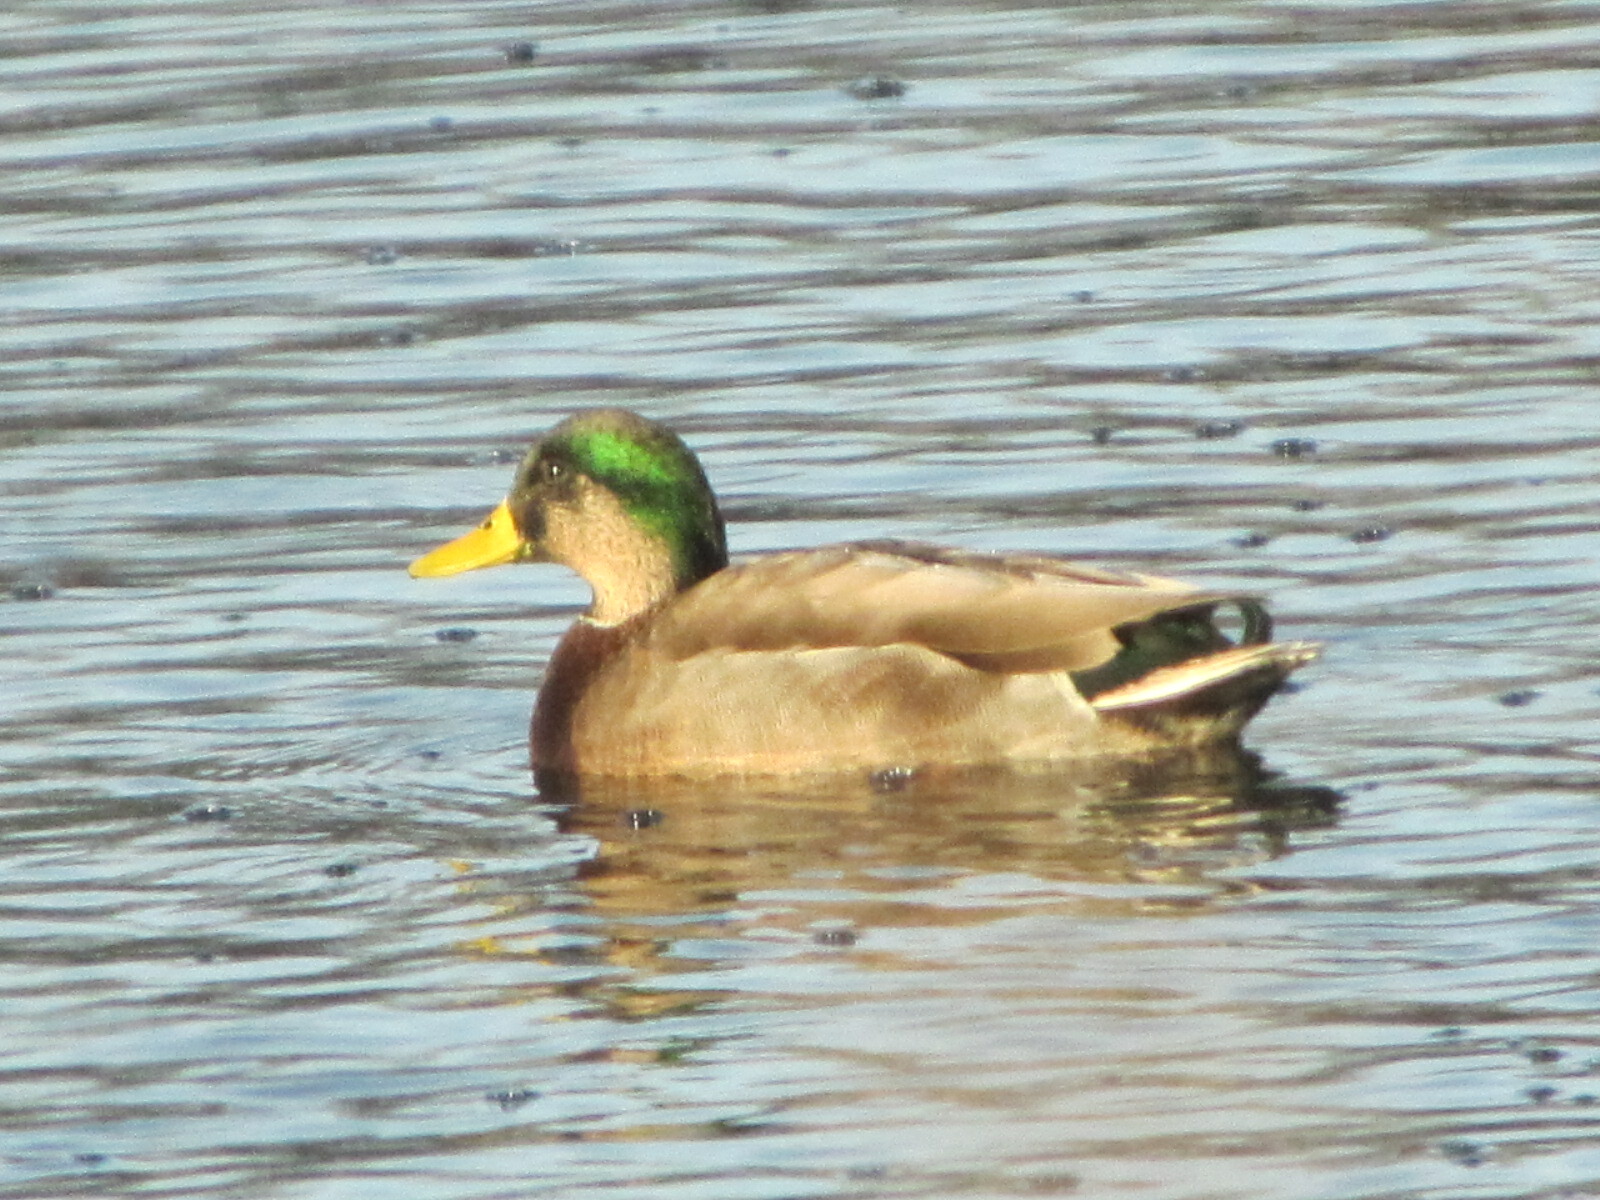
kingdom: Animalia
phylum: Chordata
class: Aves
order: Anseriformes
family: Anatidae
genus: Anas
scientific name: Anas
